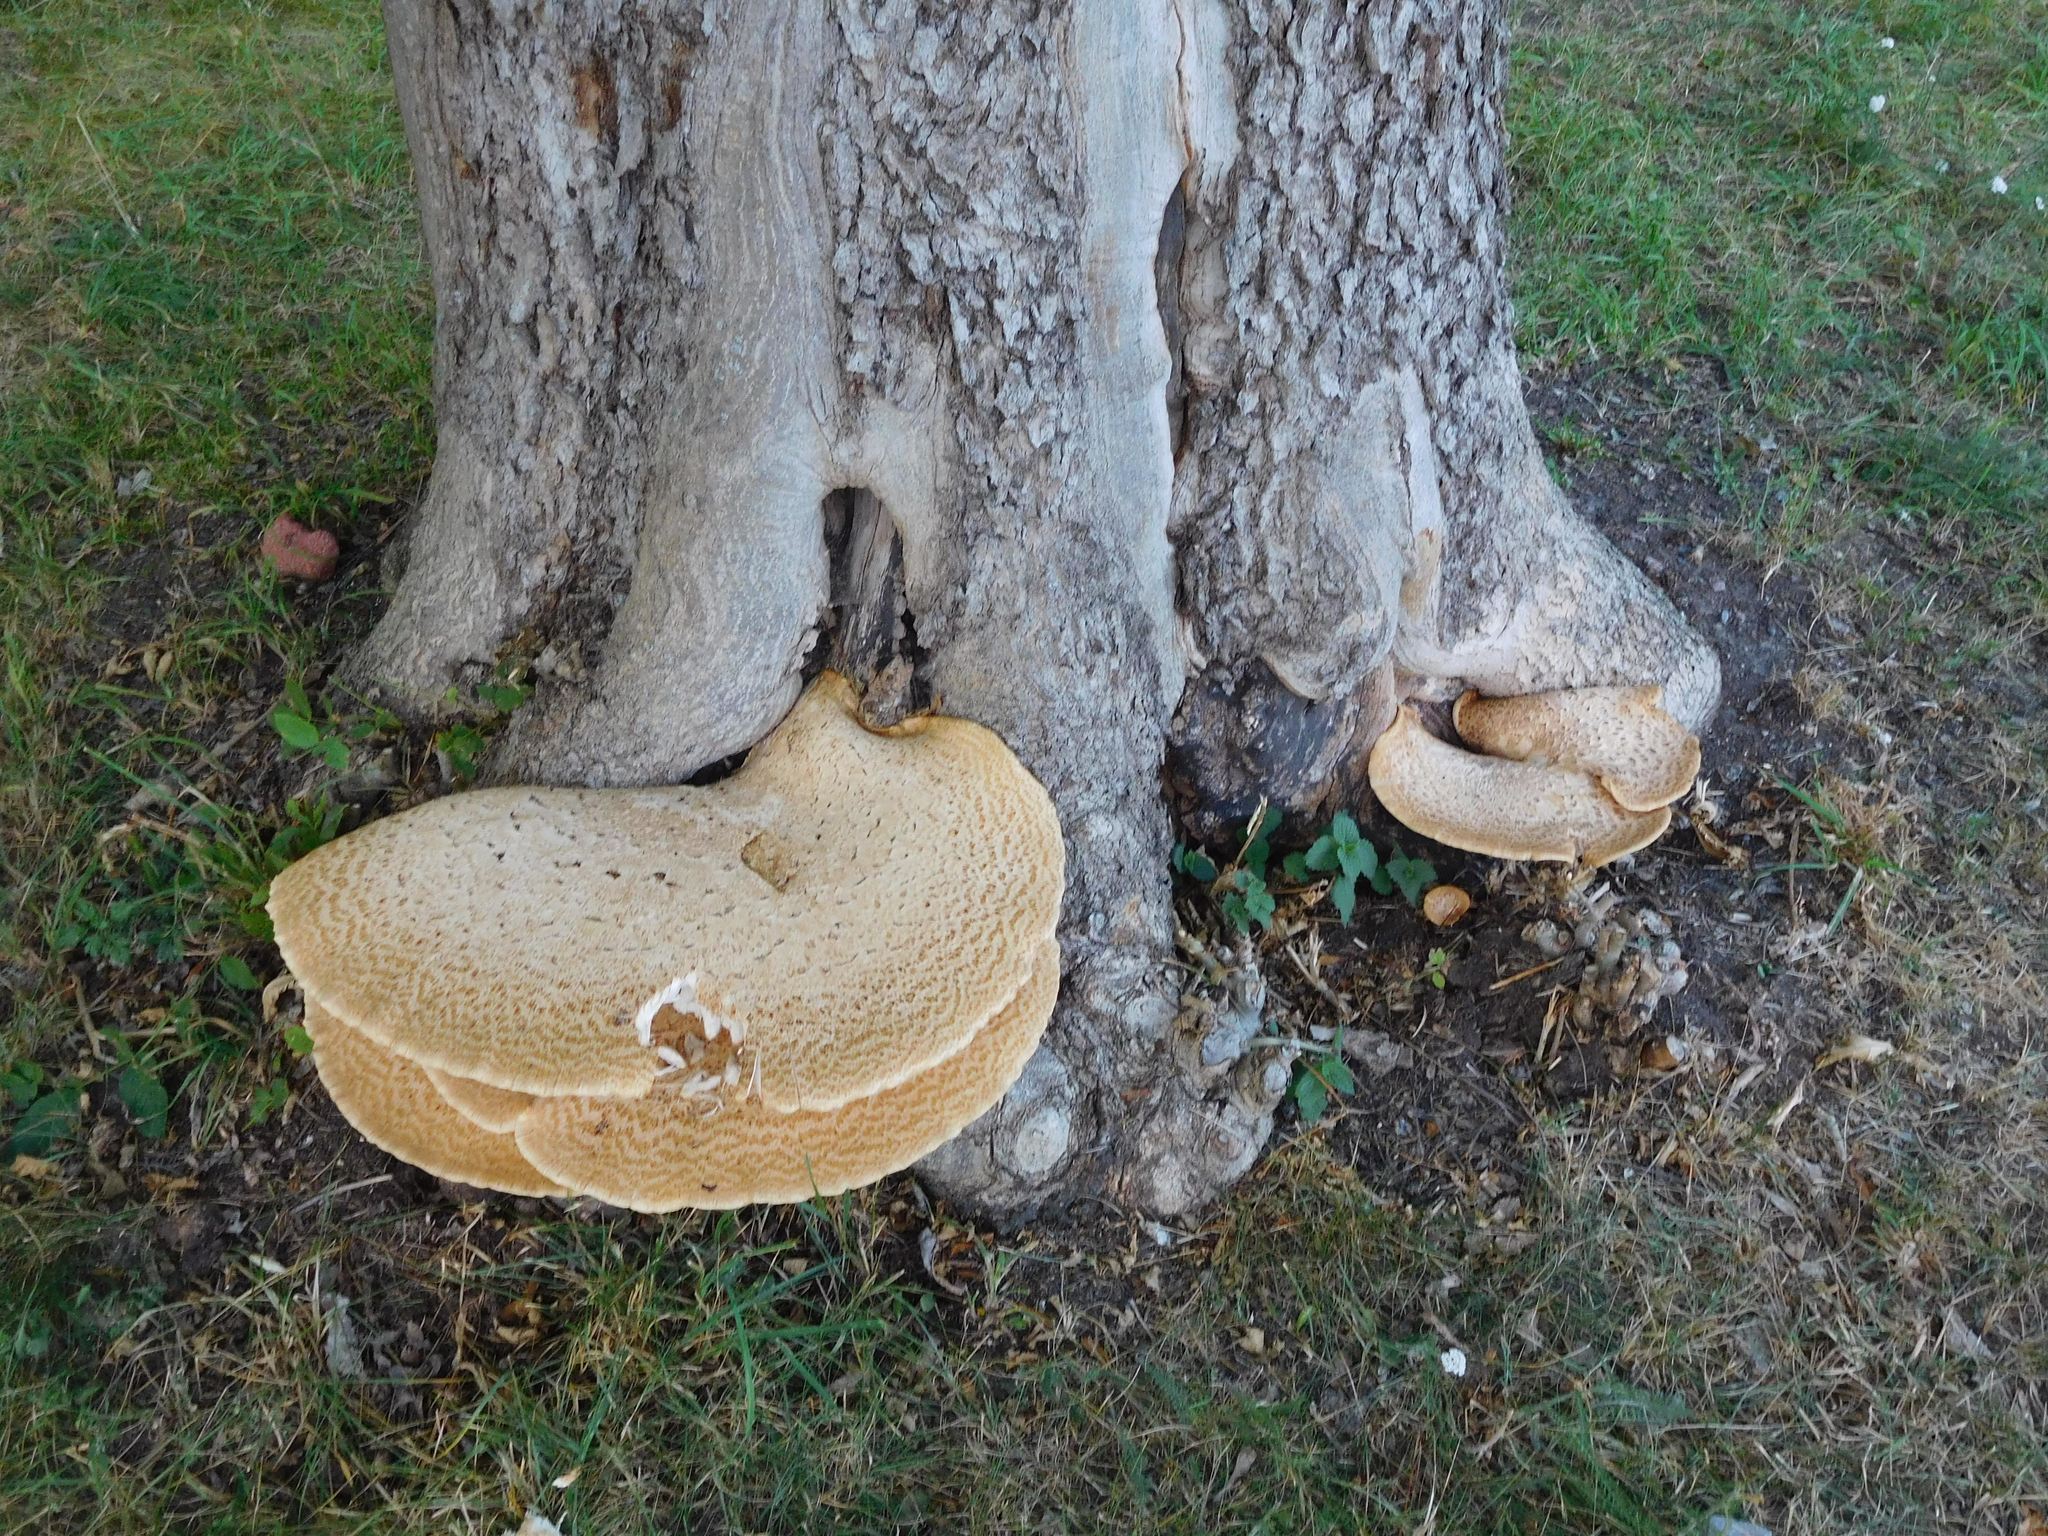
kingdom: Fungi
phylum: Basidiomycota
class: Agaricomycetes
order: Polyporales
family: Polyporaceae
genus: Cerioporus
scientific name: Cerioporus squamosus
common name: Dryad's saddle
